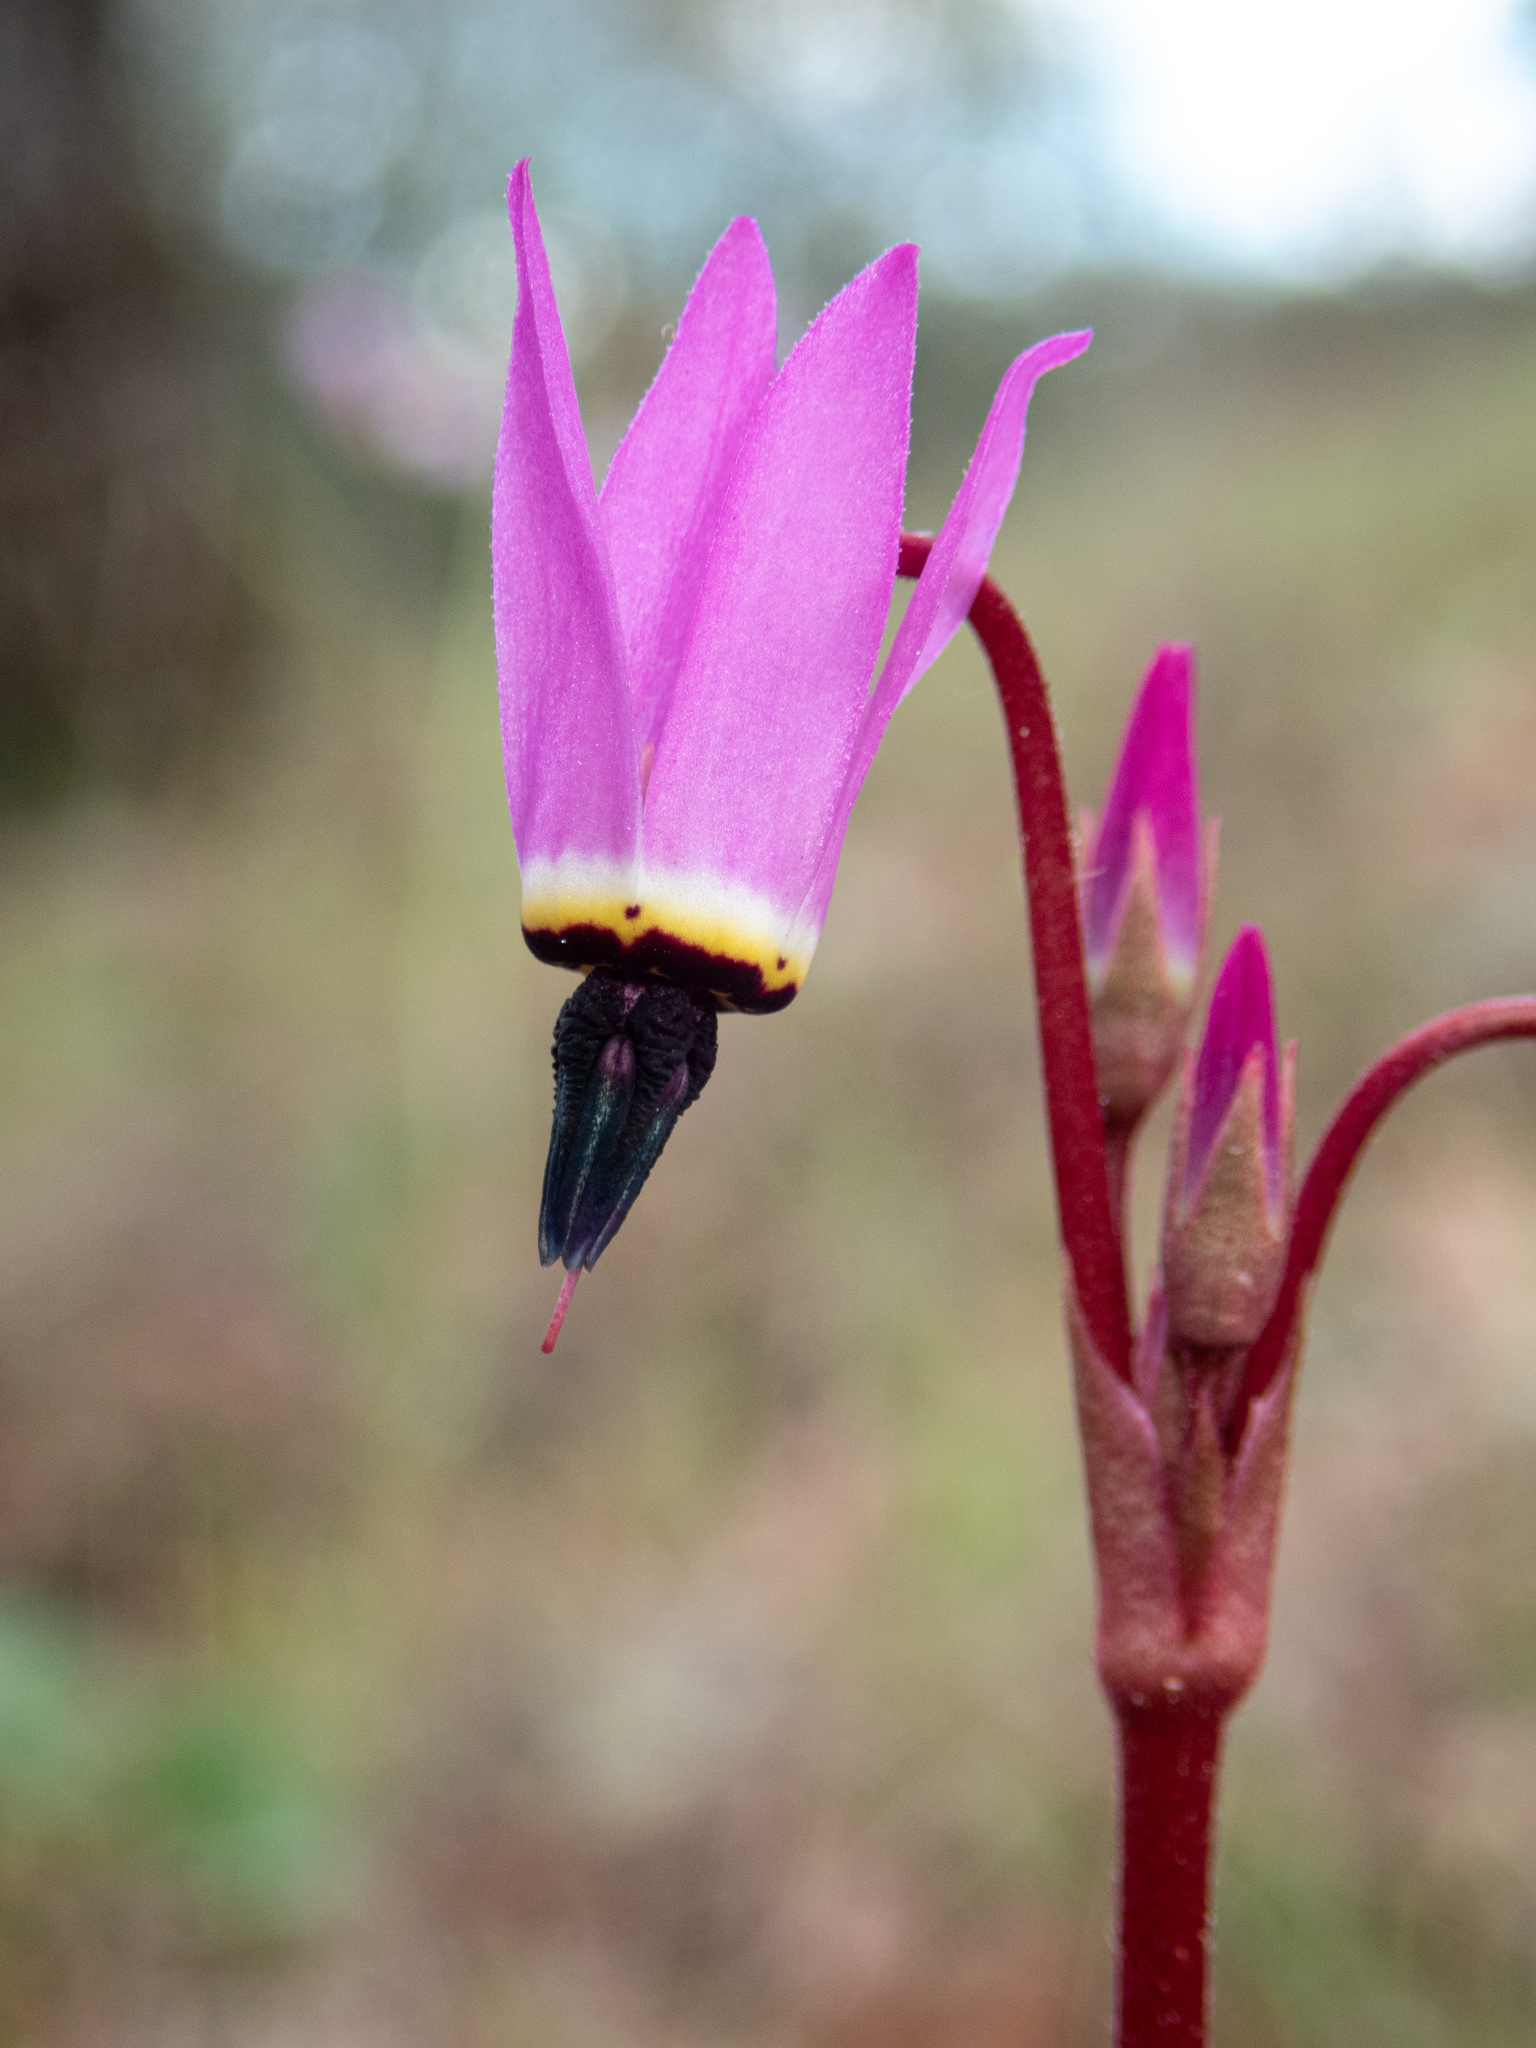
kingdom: Plantae
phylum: Tracheophyta
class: Magnoliopsida
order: Ericales
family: Primulaceae
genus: Dodecatheon
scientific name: Dodecatheon hendersonii
